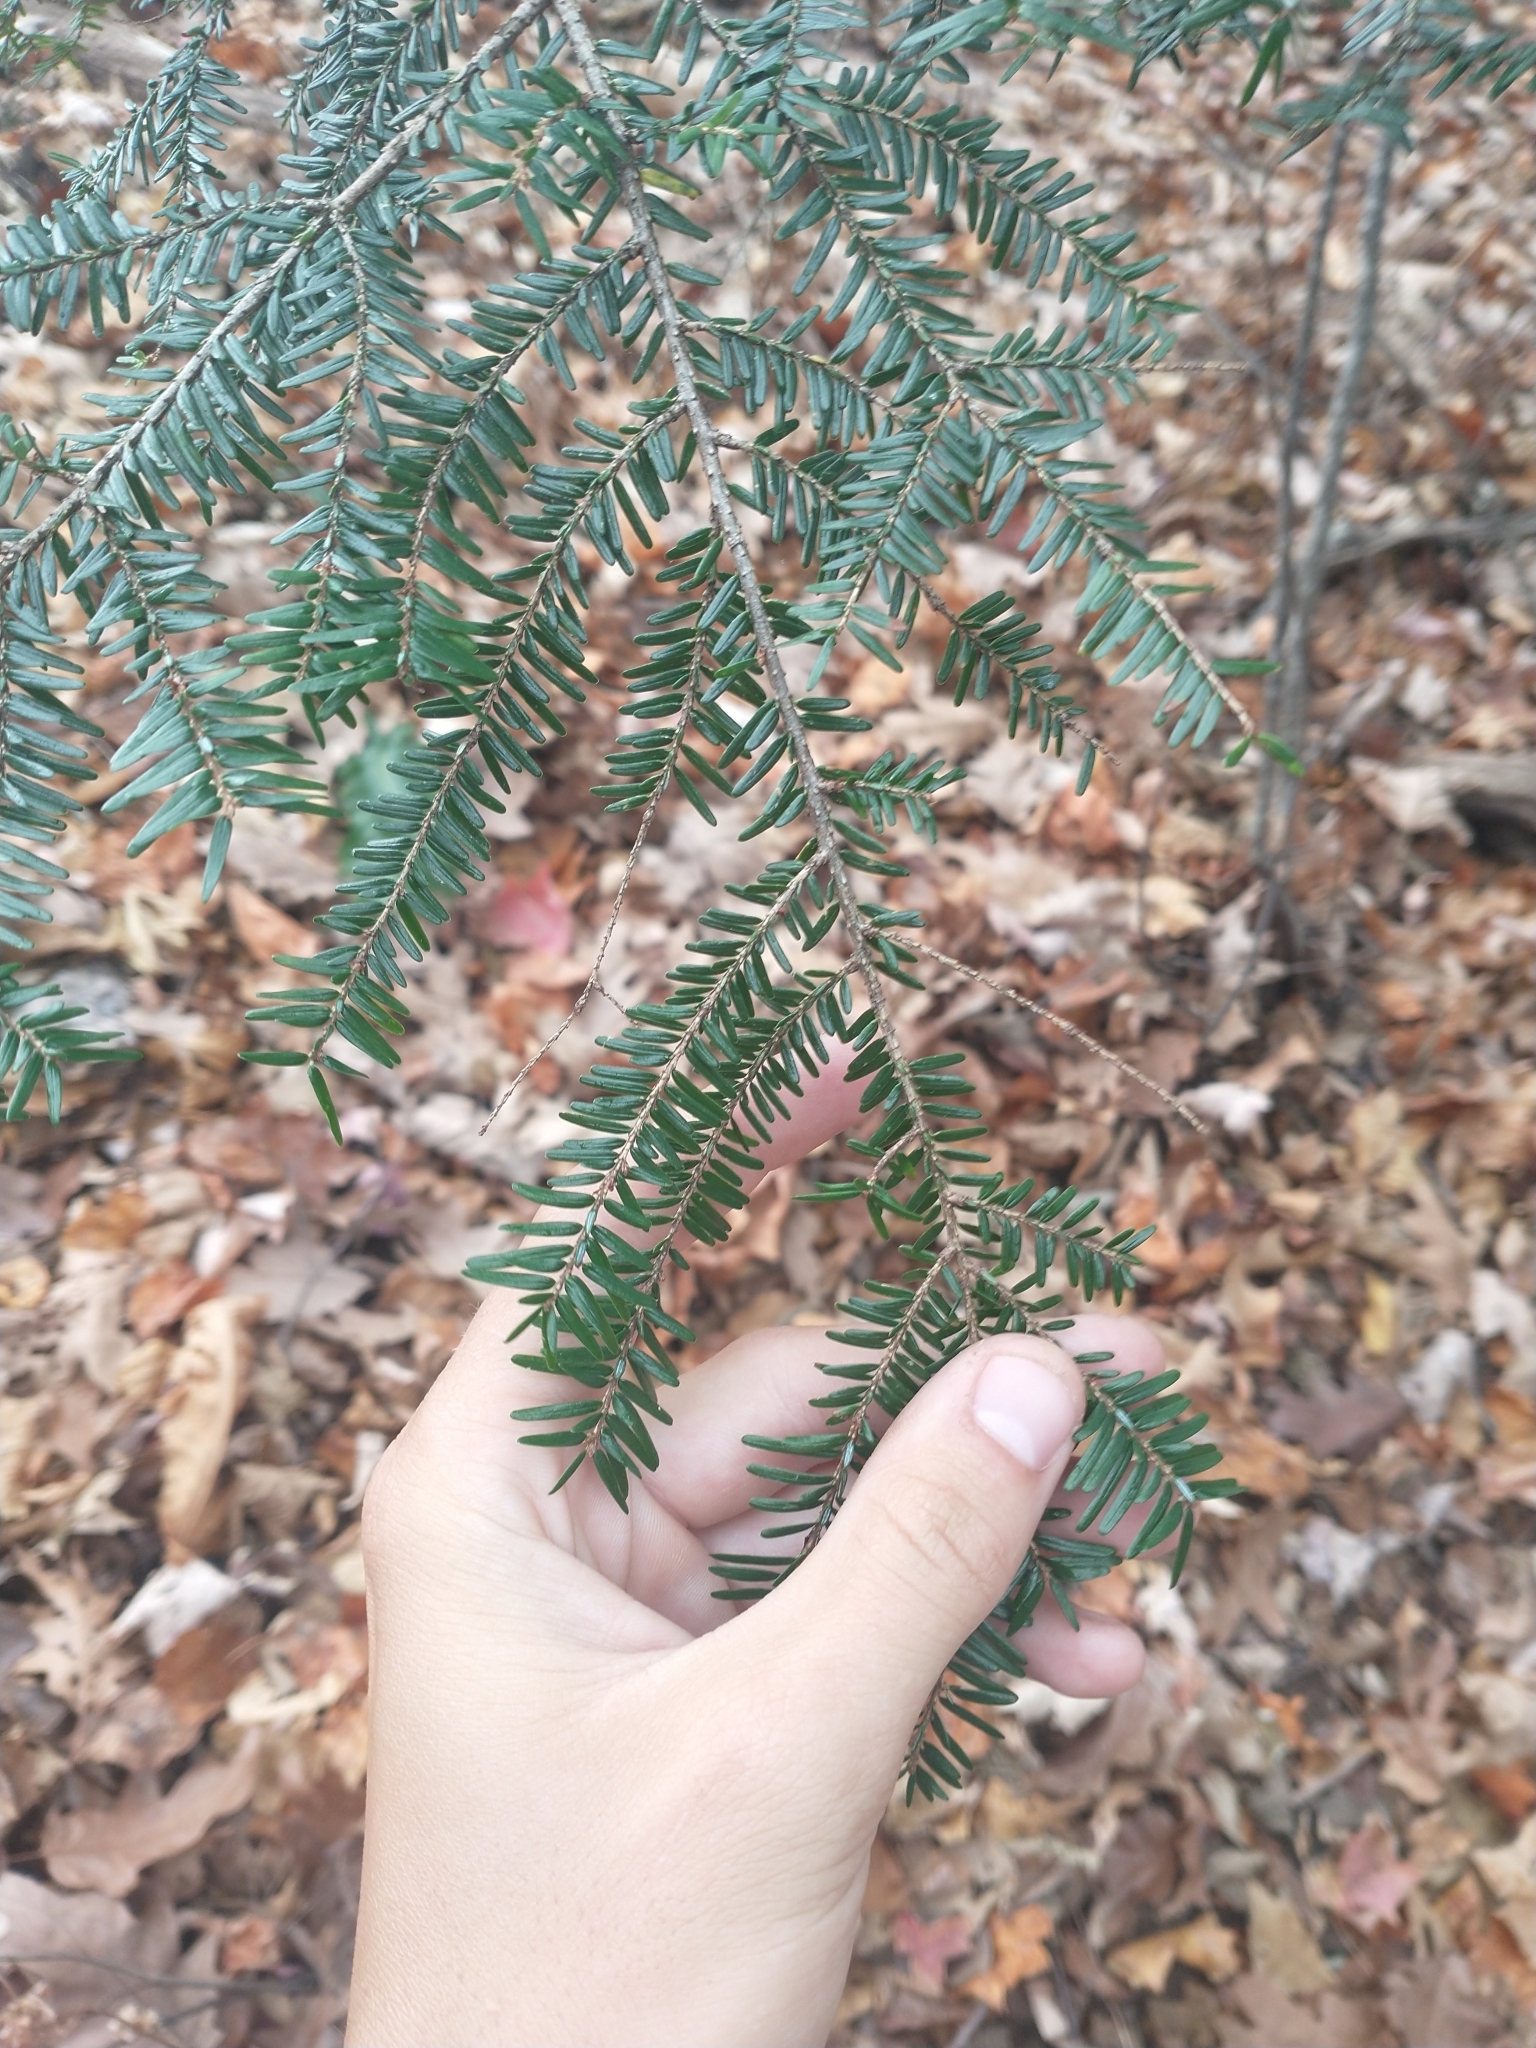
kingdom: Plantae
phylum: Tracheophyta
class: Pinopsida
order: Pinales
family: Pinaceae
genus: Tsuga
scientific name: Tsuga canadensis
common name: Eastern hemlock
